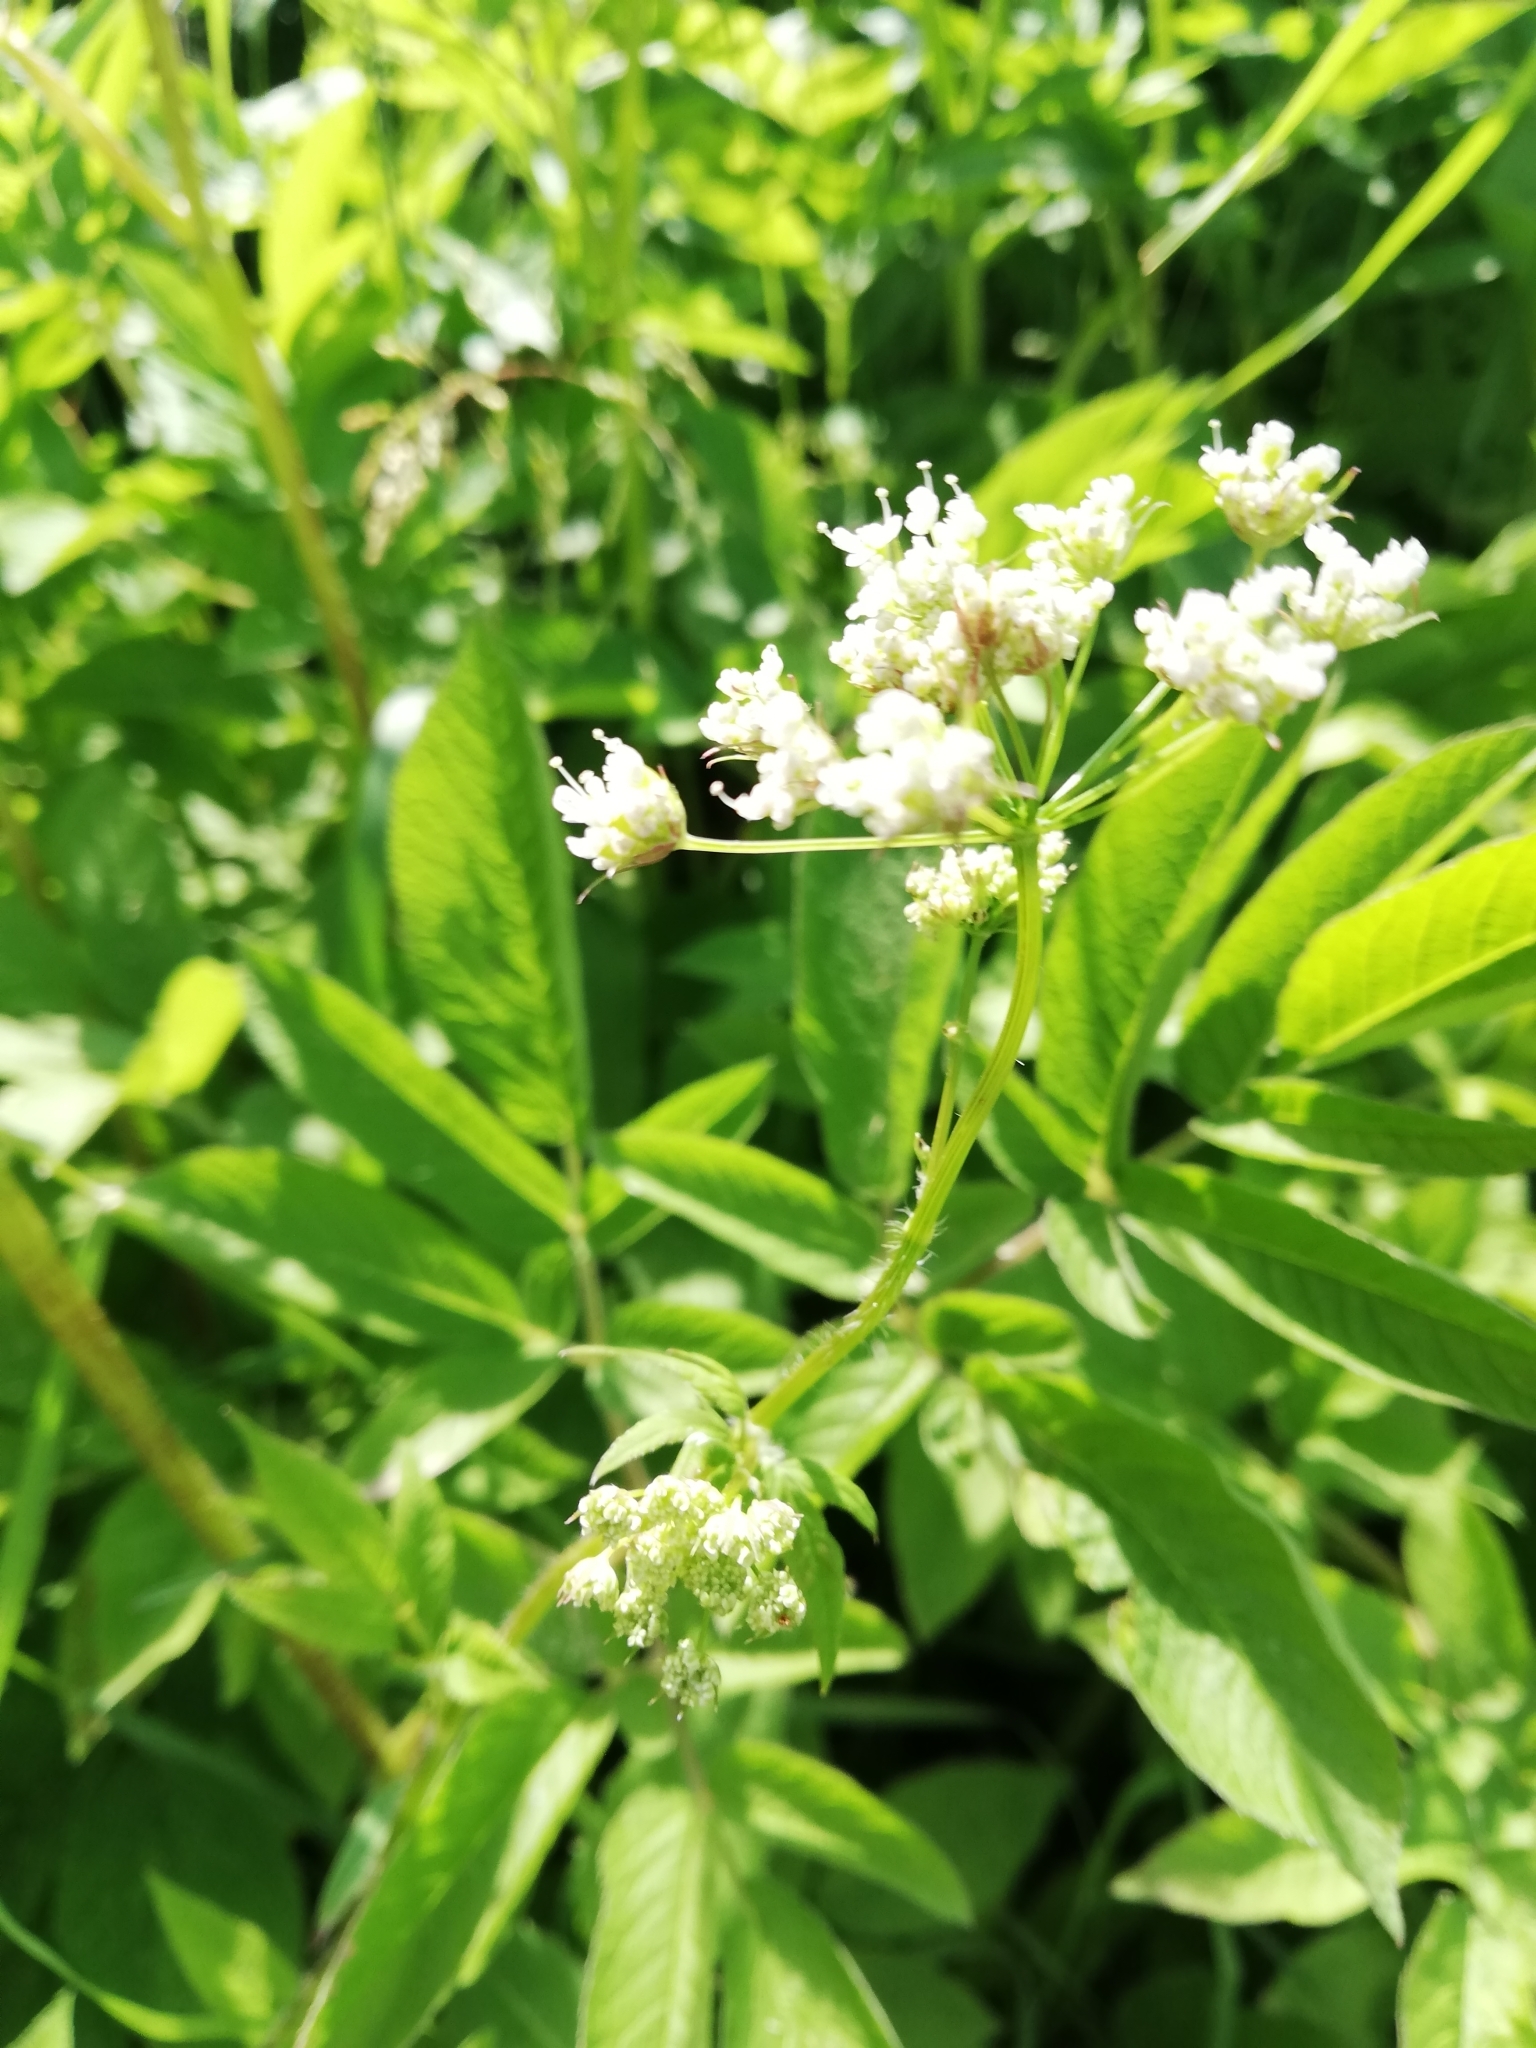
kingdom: Plantae
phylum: Tracheophyta
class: Magnoliopsida
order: Apiales
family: Apiaceae
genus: Chaerophyllum
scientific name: Chaerophyllum aromaticum
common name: Broadleaf chervil
